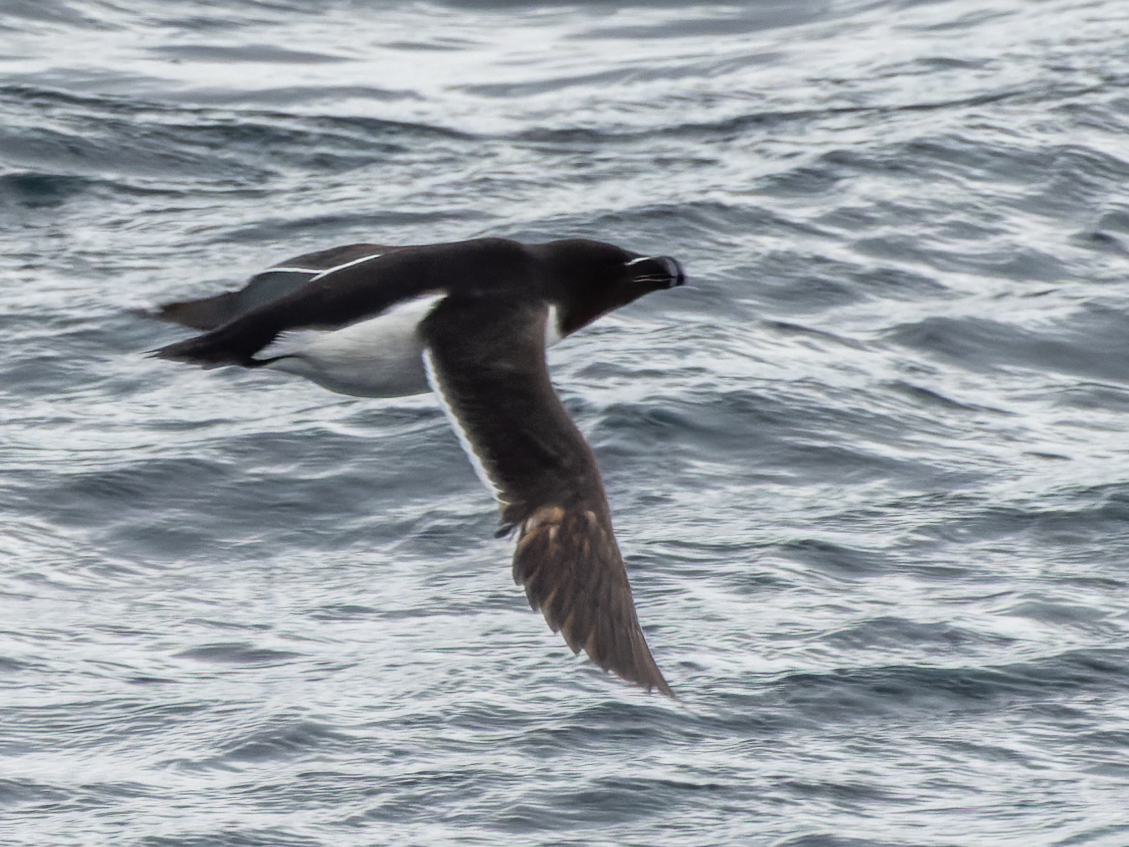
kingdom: Animalia
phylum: Chordata
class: Aves
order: Charadriiformes
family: Alcidae
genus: Alca
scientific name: Alca torda
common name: Razorbill
